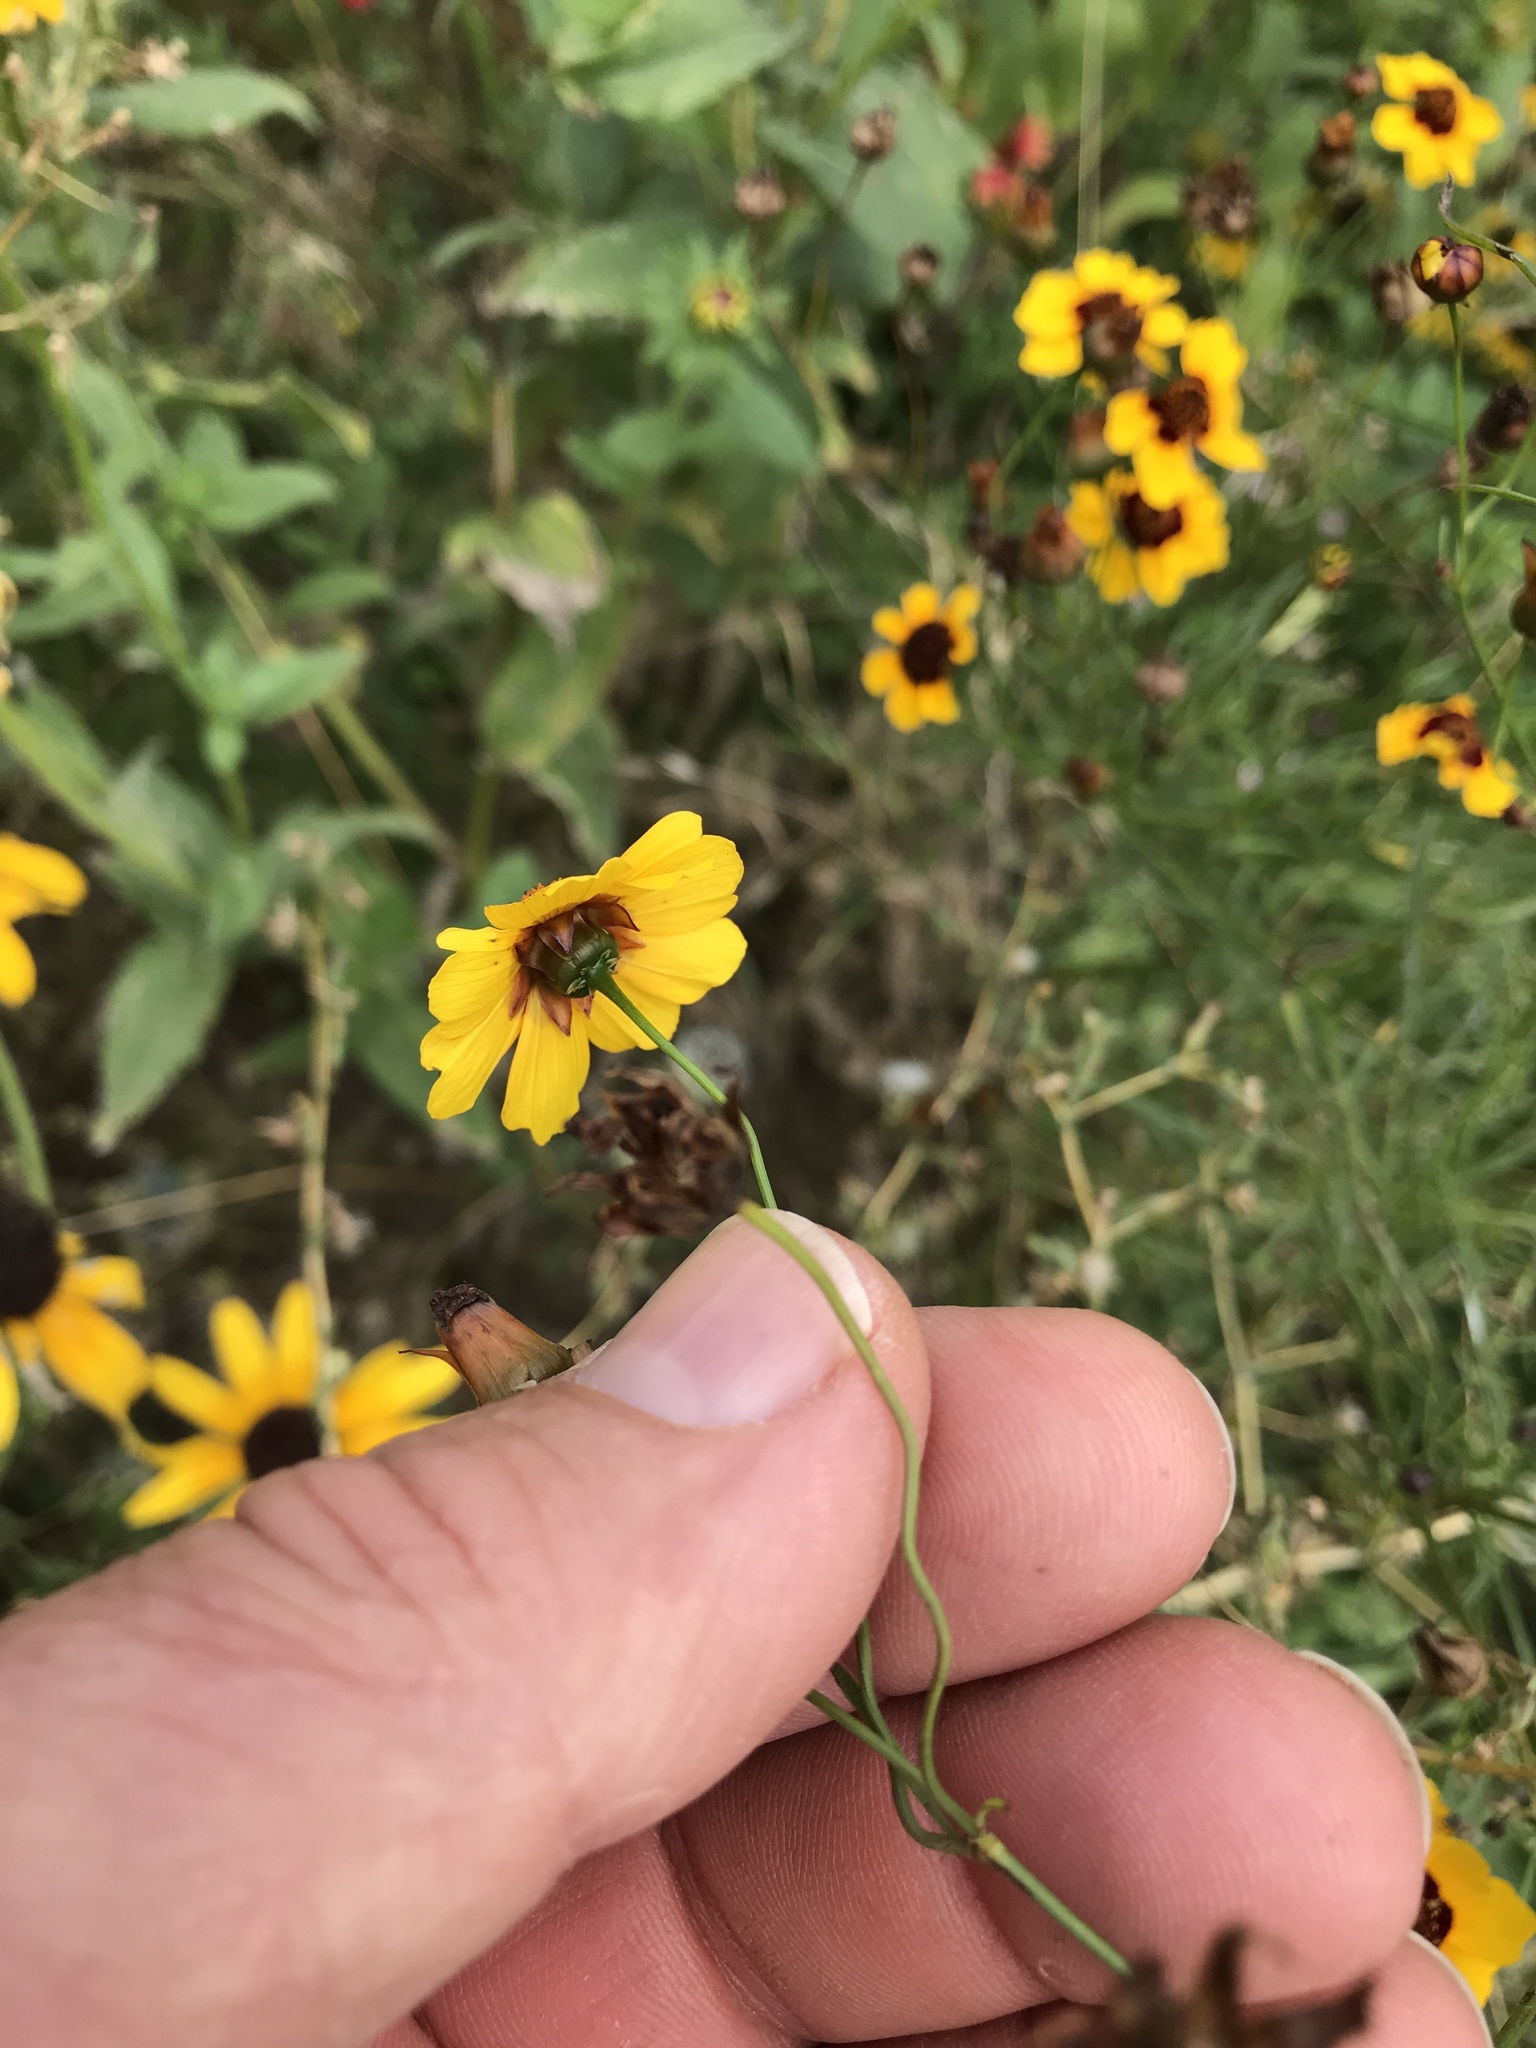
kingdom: Plantae
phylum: Tracheophyta
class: Magnoliopsida
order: Asterales
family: Asteraceae
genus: Coreopsis
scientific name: Coreopsis tinctoria
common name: Garden tickseed
